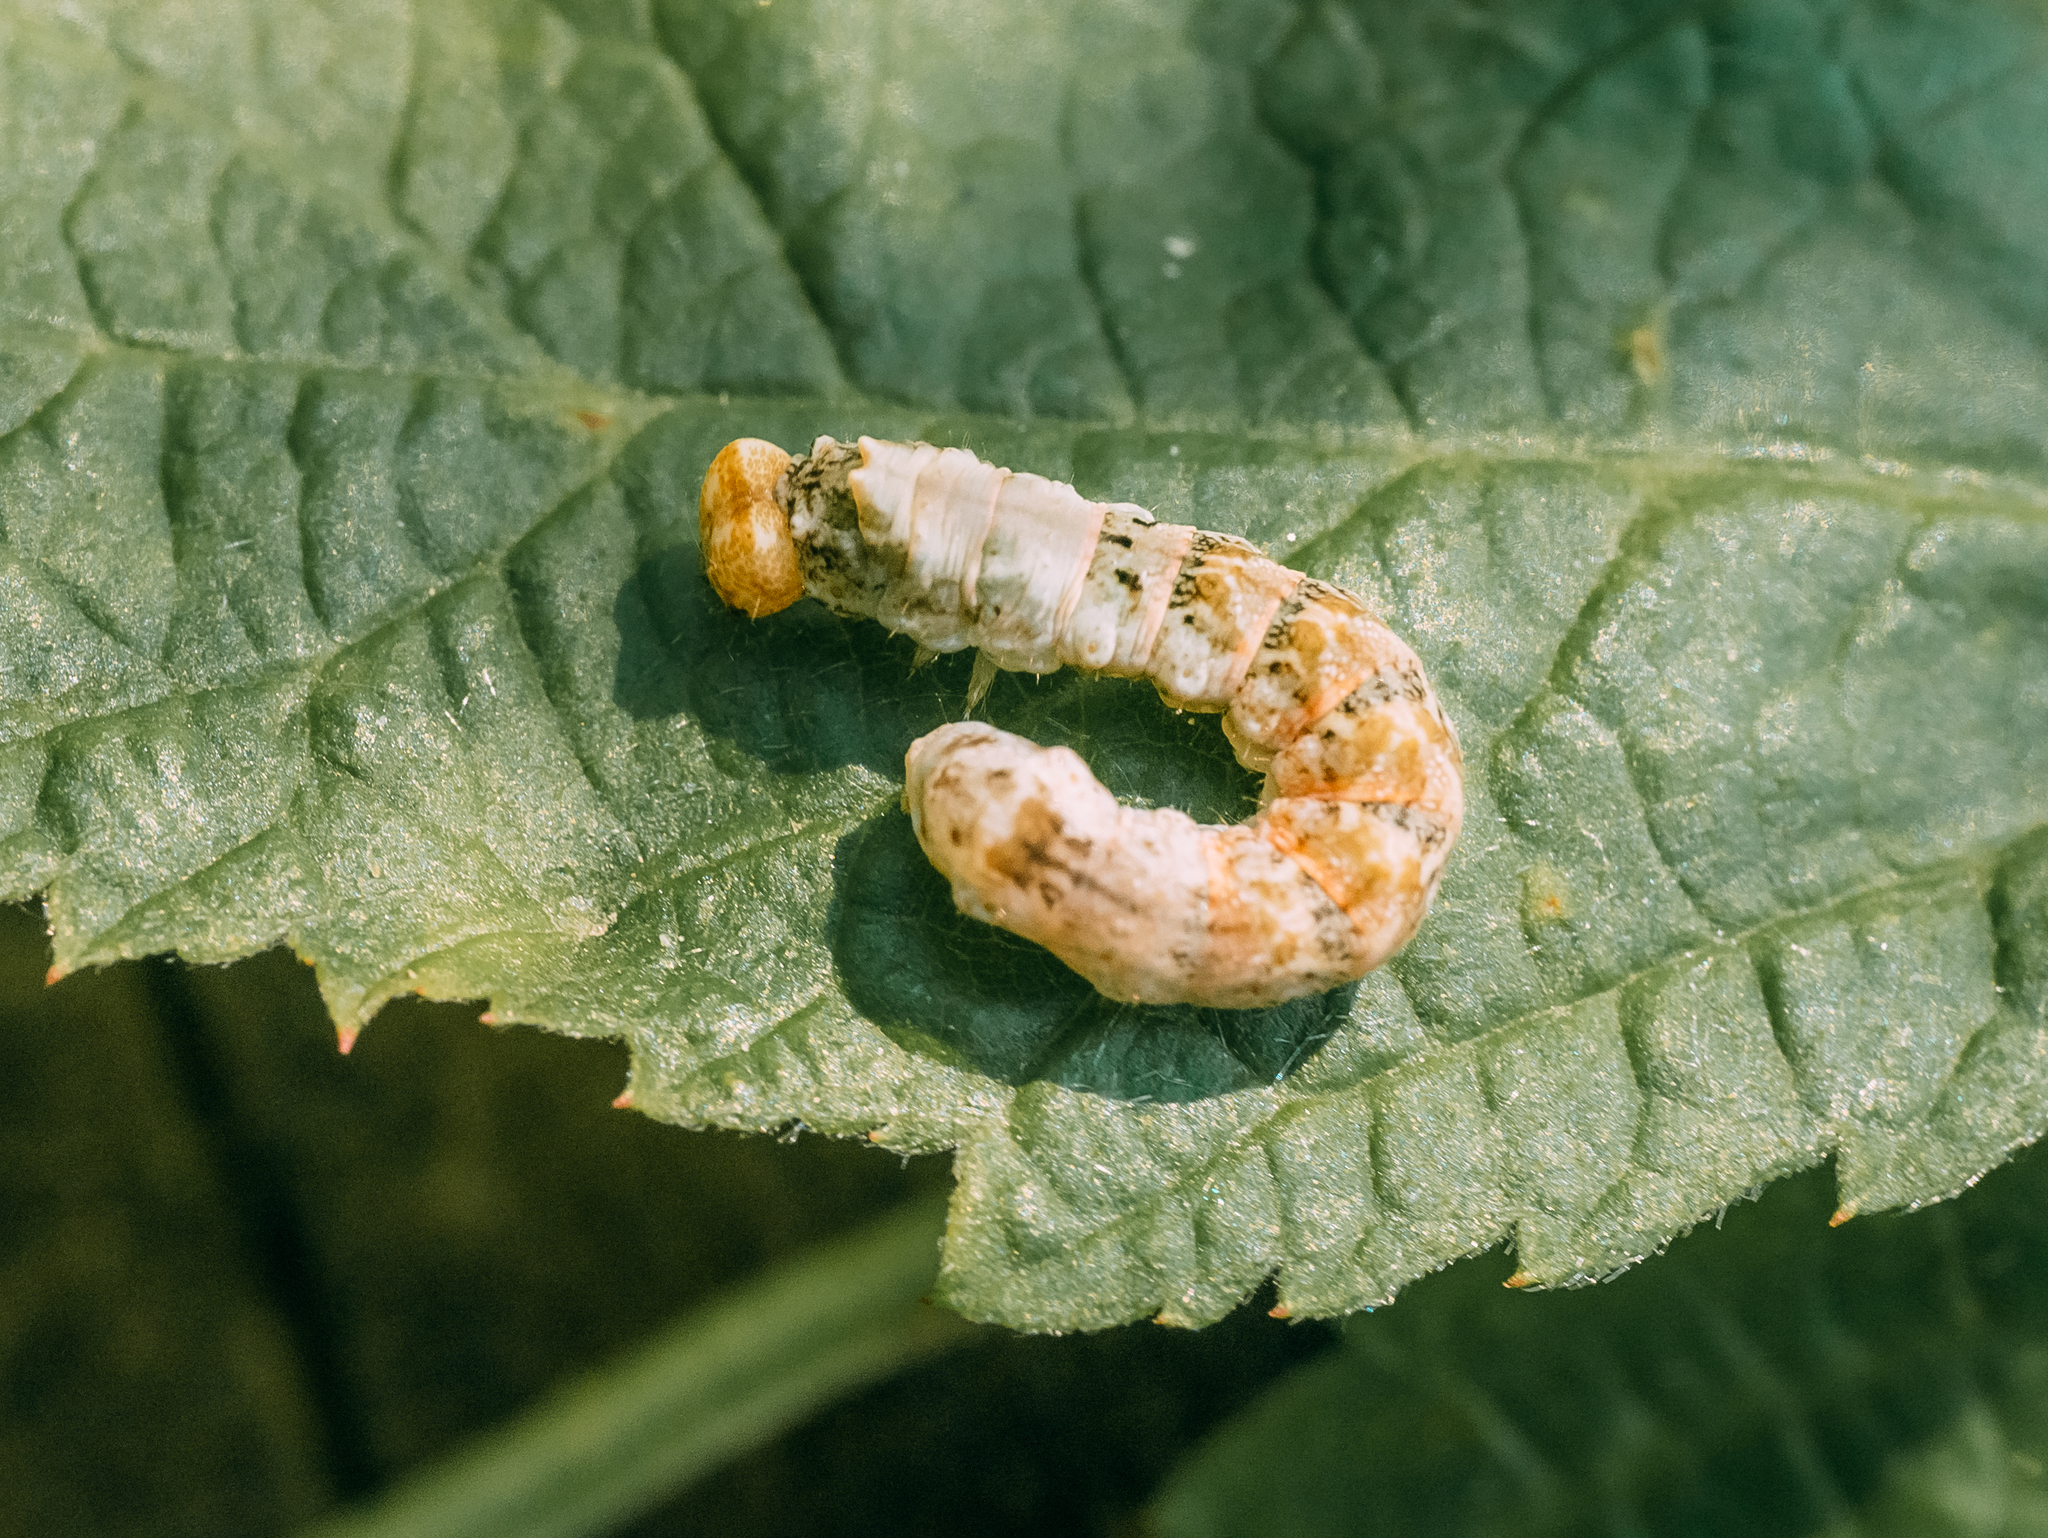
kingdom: Animalia
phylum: Arthropoda
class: Insecta
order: Lepidoptera
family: Drepanidae
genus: Thyatira
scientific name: Thyatira batis
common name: Peach blossom
